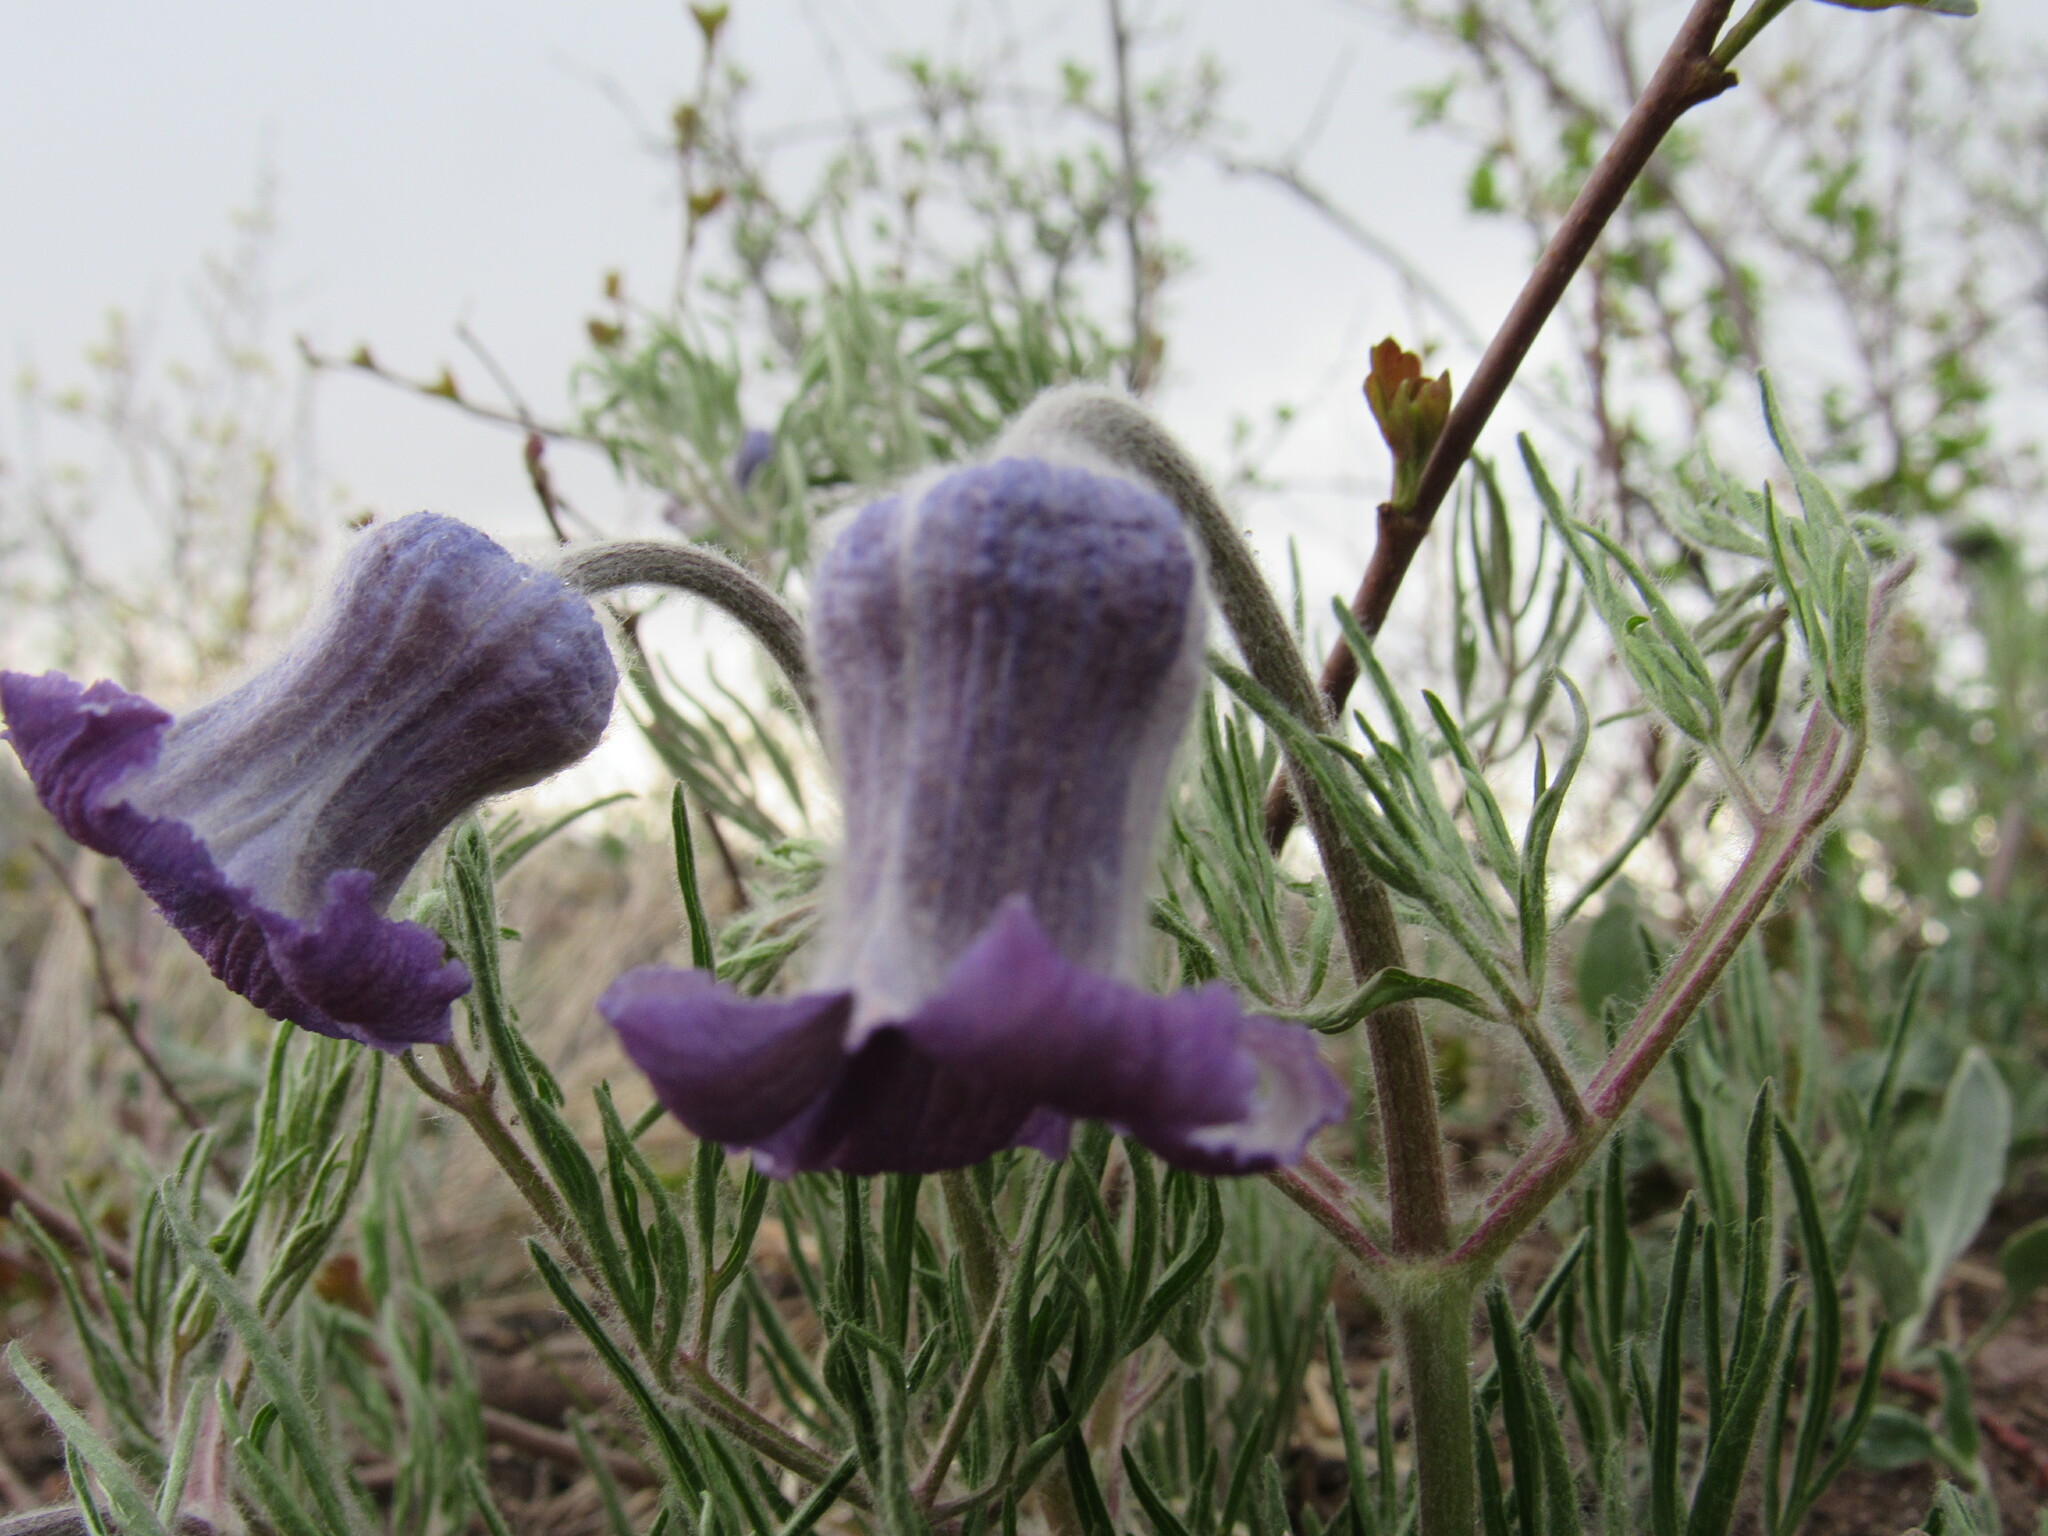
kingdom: Plantae
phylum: Tracheophyta
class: Magnoliopsida
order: Ranunculales
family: Ranunculaceae
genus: Clematis
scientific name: Clematis hirsutissima
